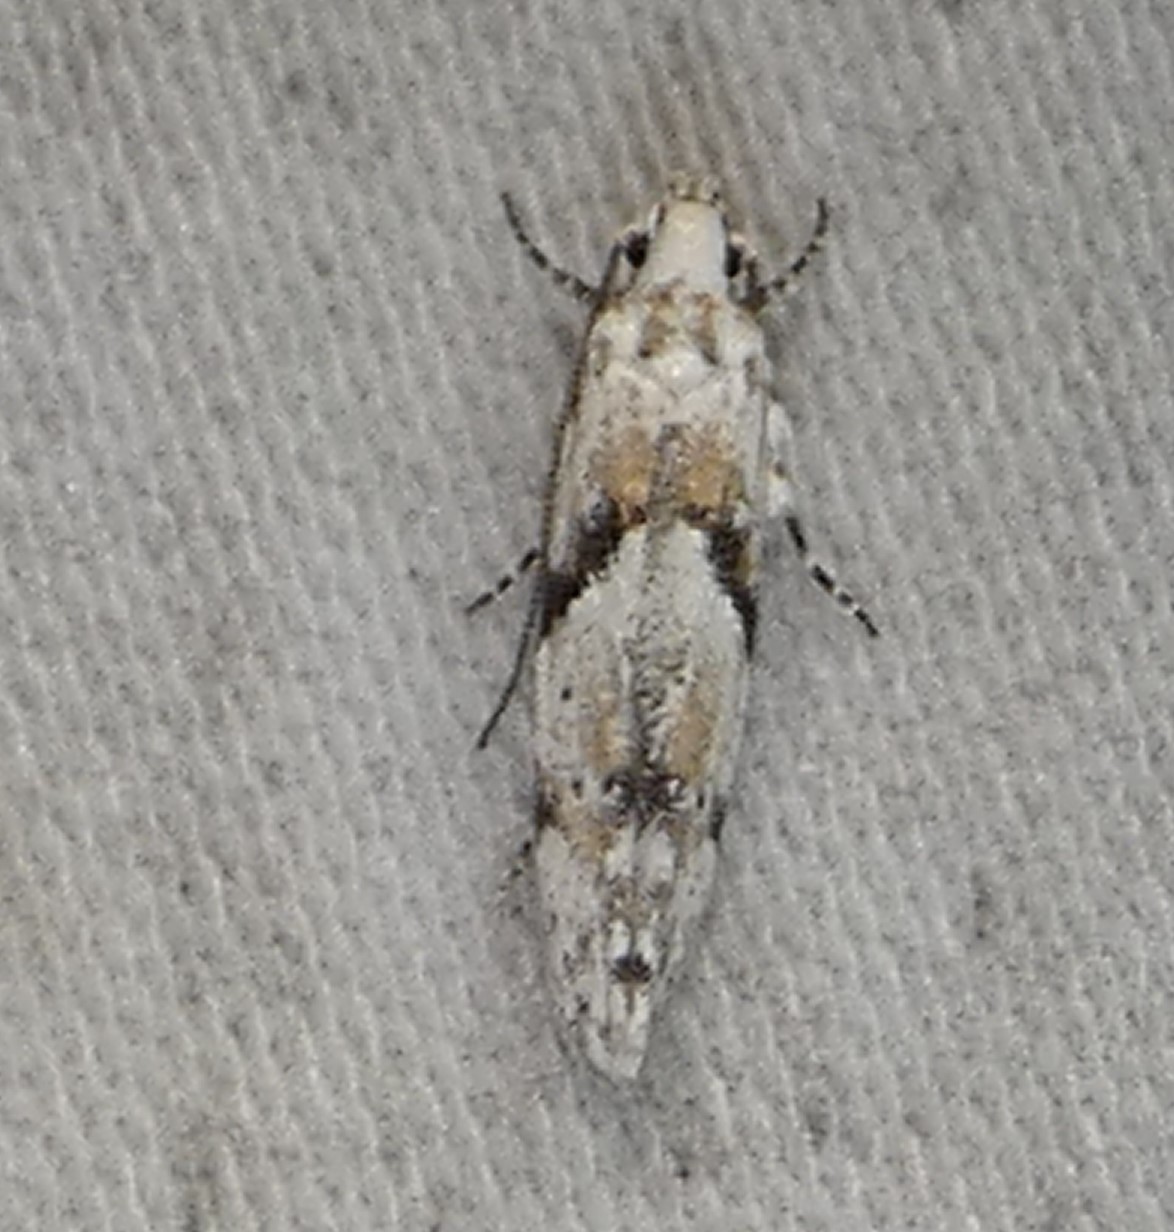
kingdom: Animalia
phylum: Arthropoda
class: Insecta
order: Lepidoptera
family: Gelechiidae
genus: Arogalea
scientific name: Arogalea cristifasciella
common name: White stripe-backed moth
